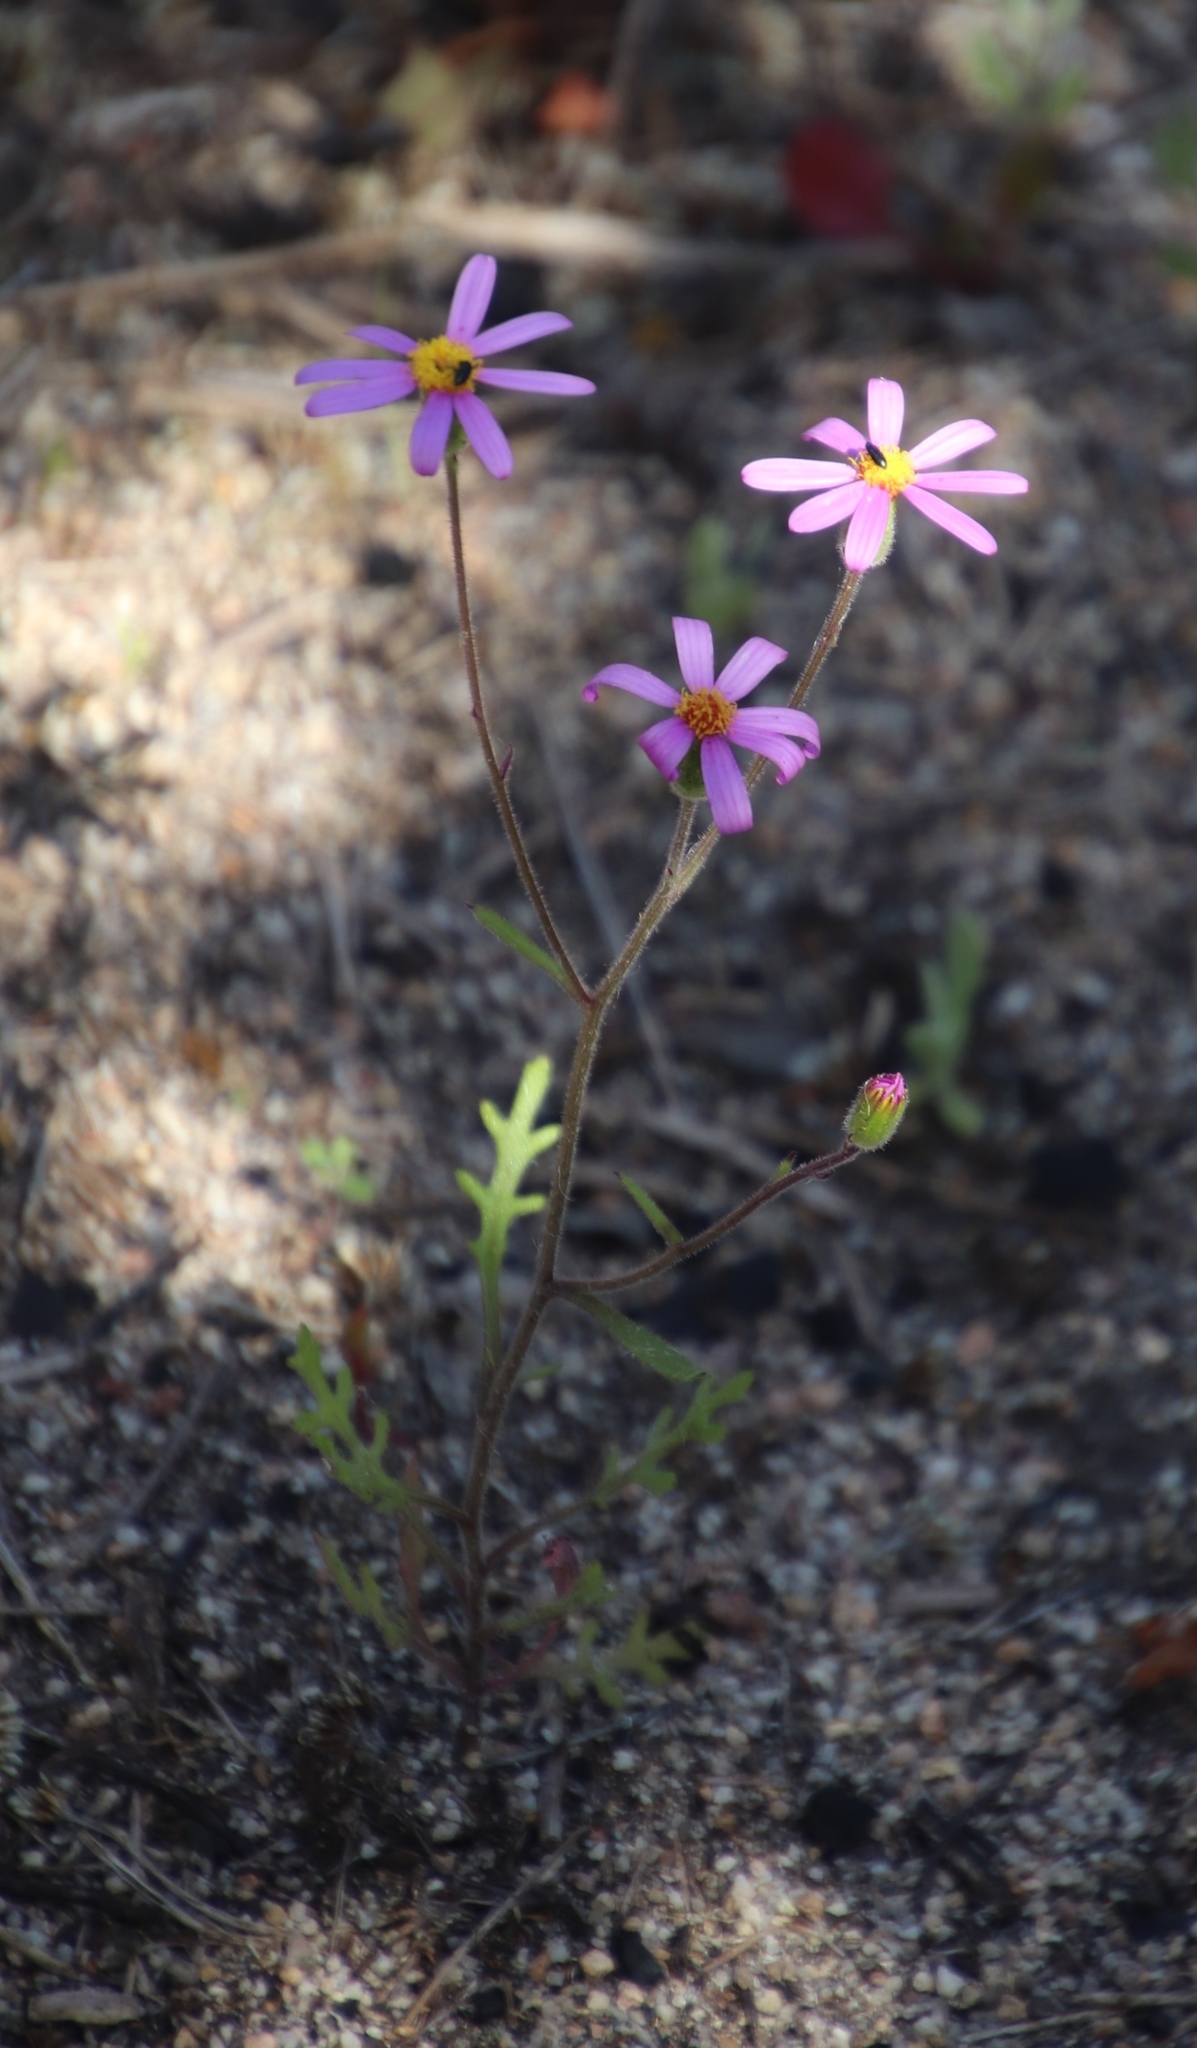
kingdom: Plantae
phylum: Tracheophyta
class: Magnoliopsida
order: Asterales
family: Asteraceae
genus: Senecio
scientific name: Senecio arenarius
